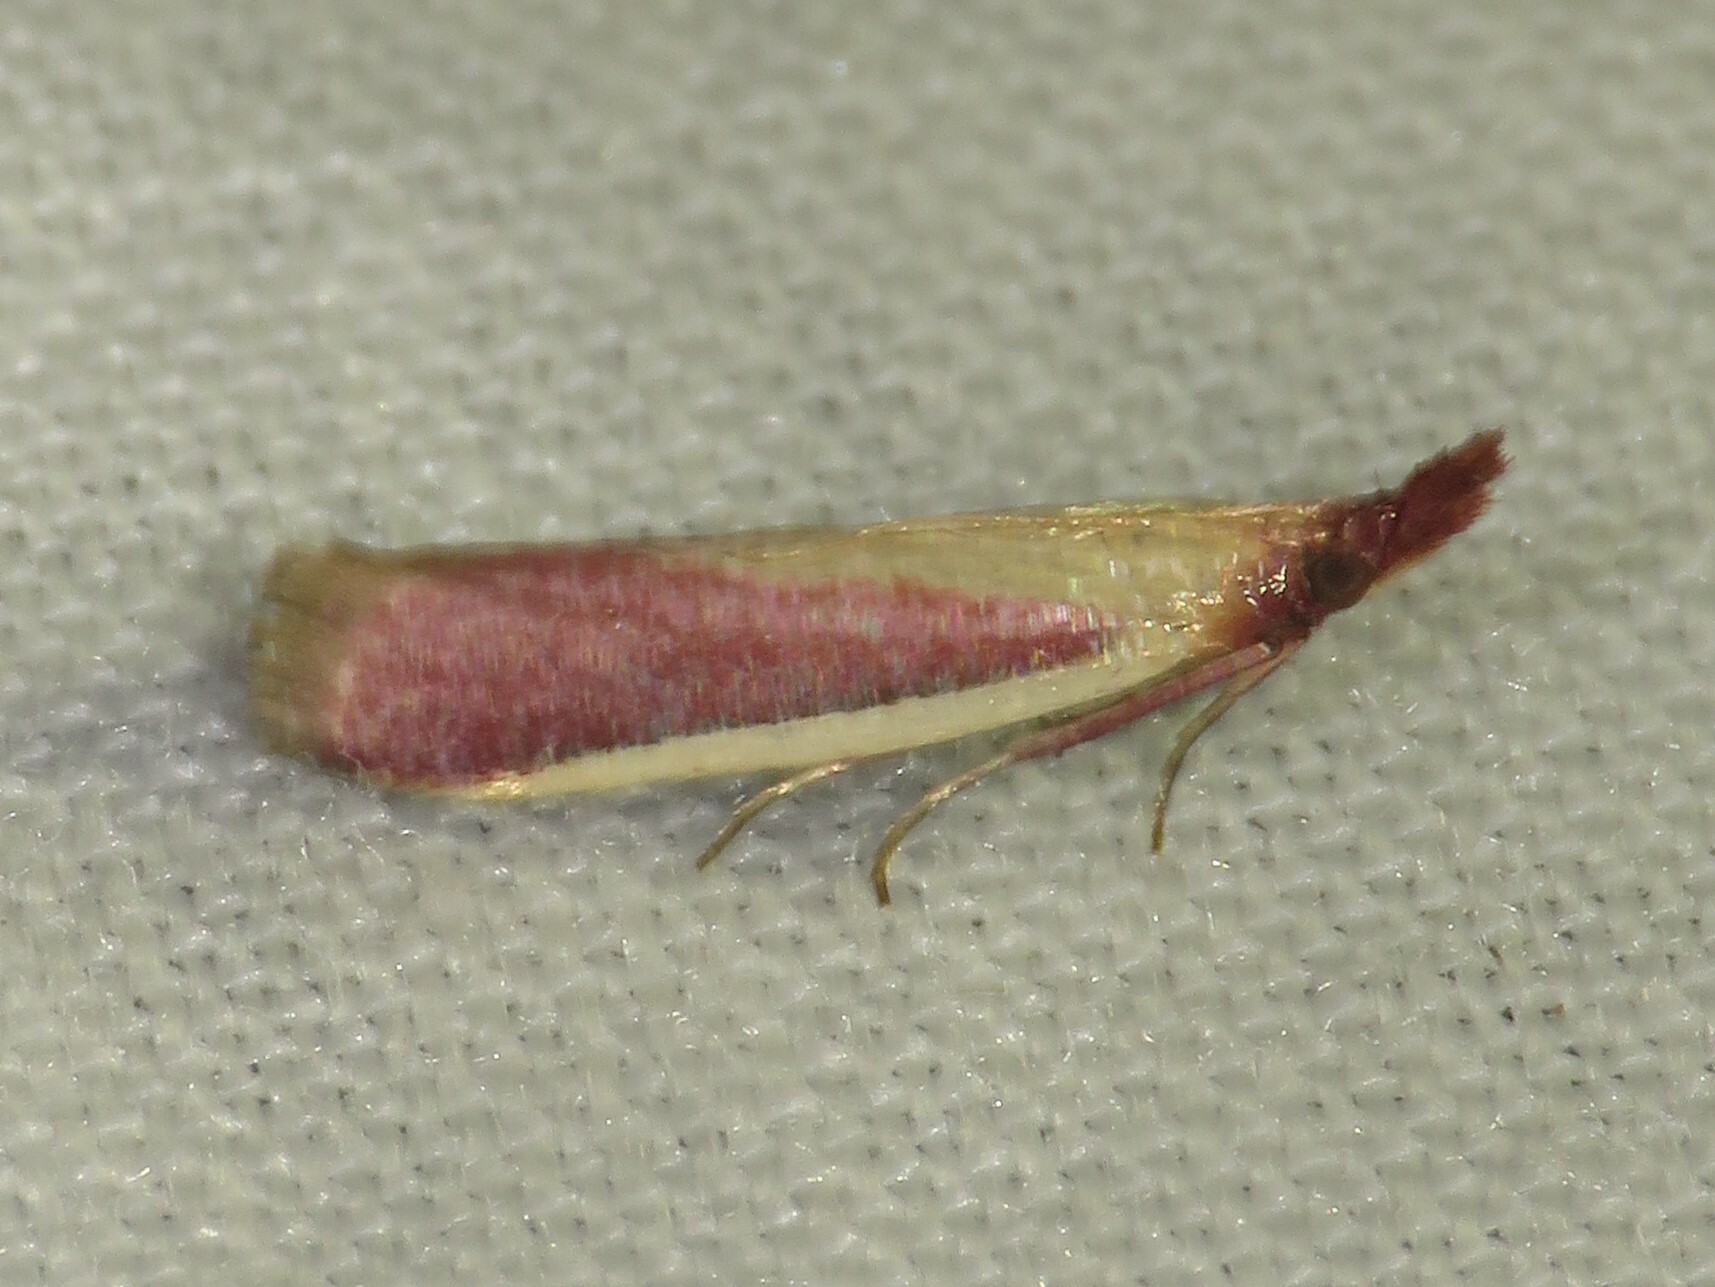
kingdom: Animalia
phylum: Arthropoda
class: Insecta
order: Lepidoptera
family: Pyralidae
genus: Peoria
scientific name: Peoria approximella
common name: Carmine snout
